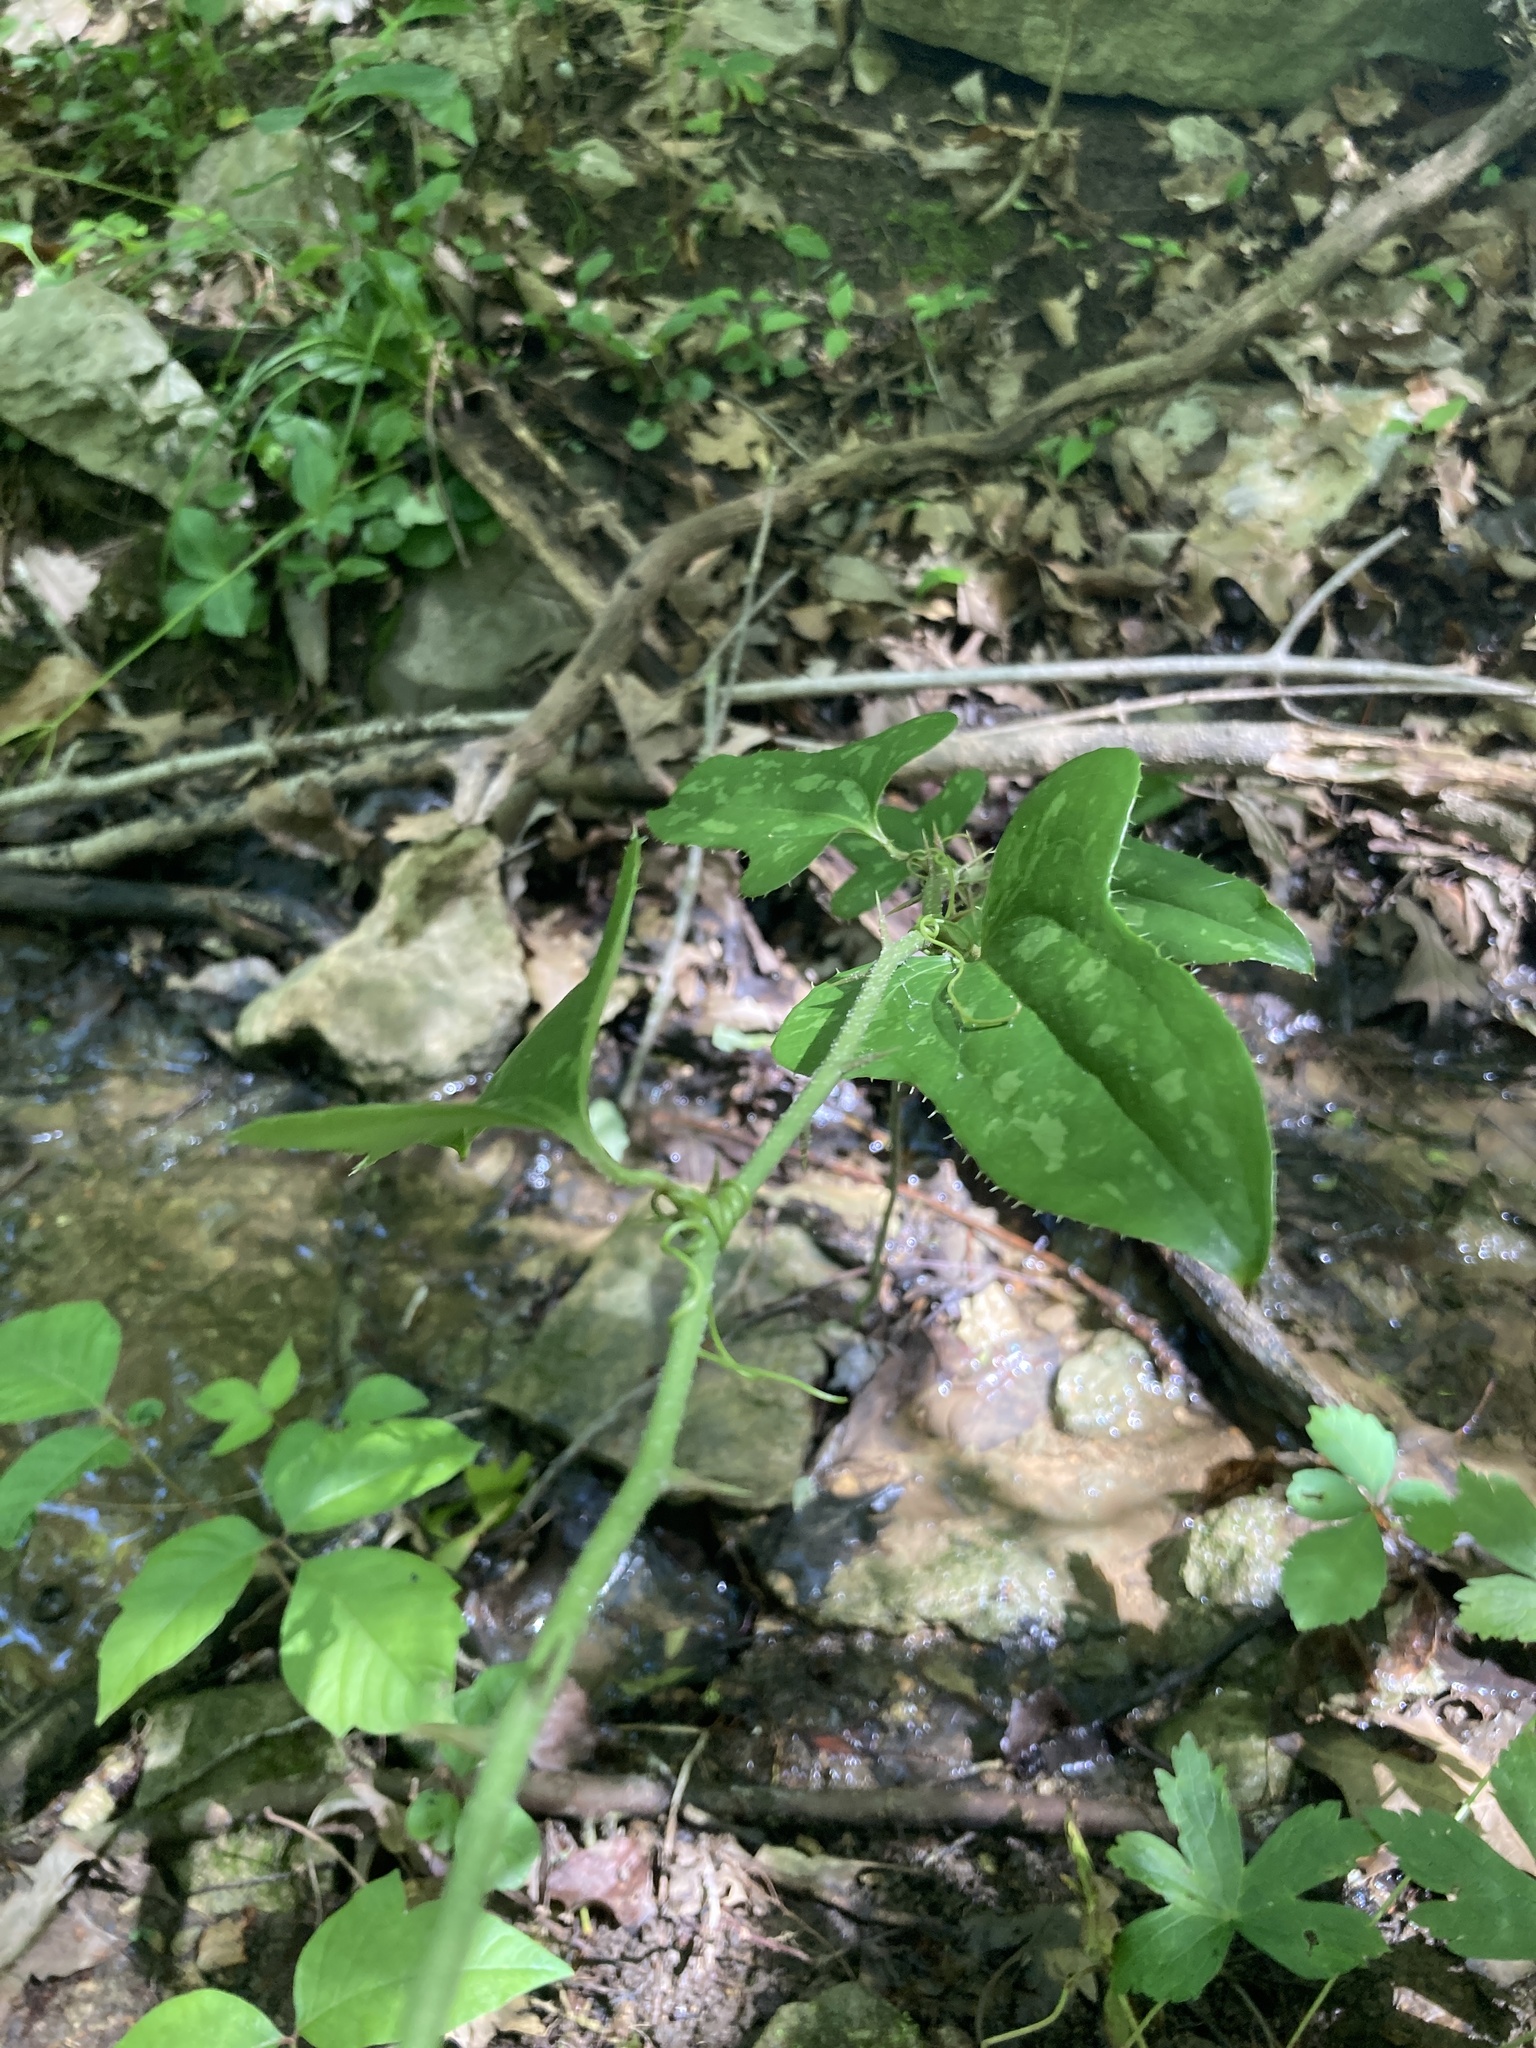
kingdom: Plantae
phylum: Tracheophyta
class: Liliopsida
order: Liliales
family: Smilacaceae
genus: Smilax
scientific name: Smilax bona-nox
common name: Catbrier
